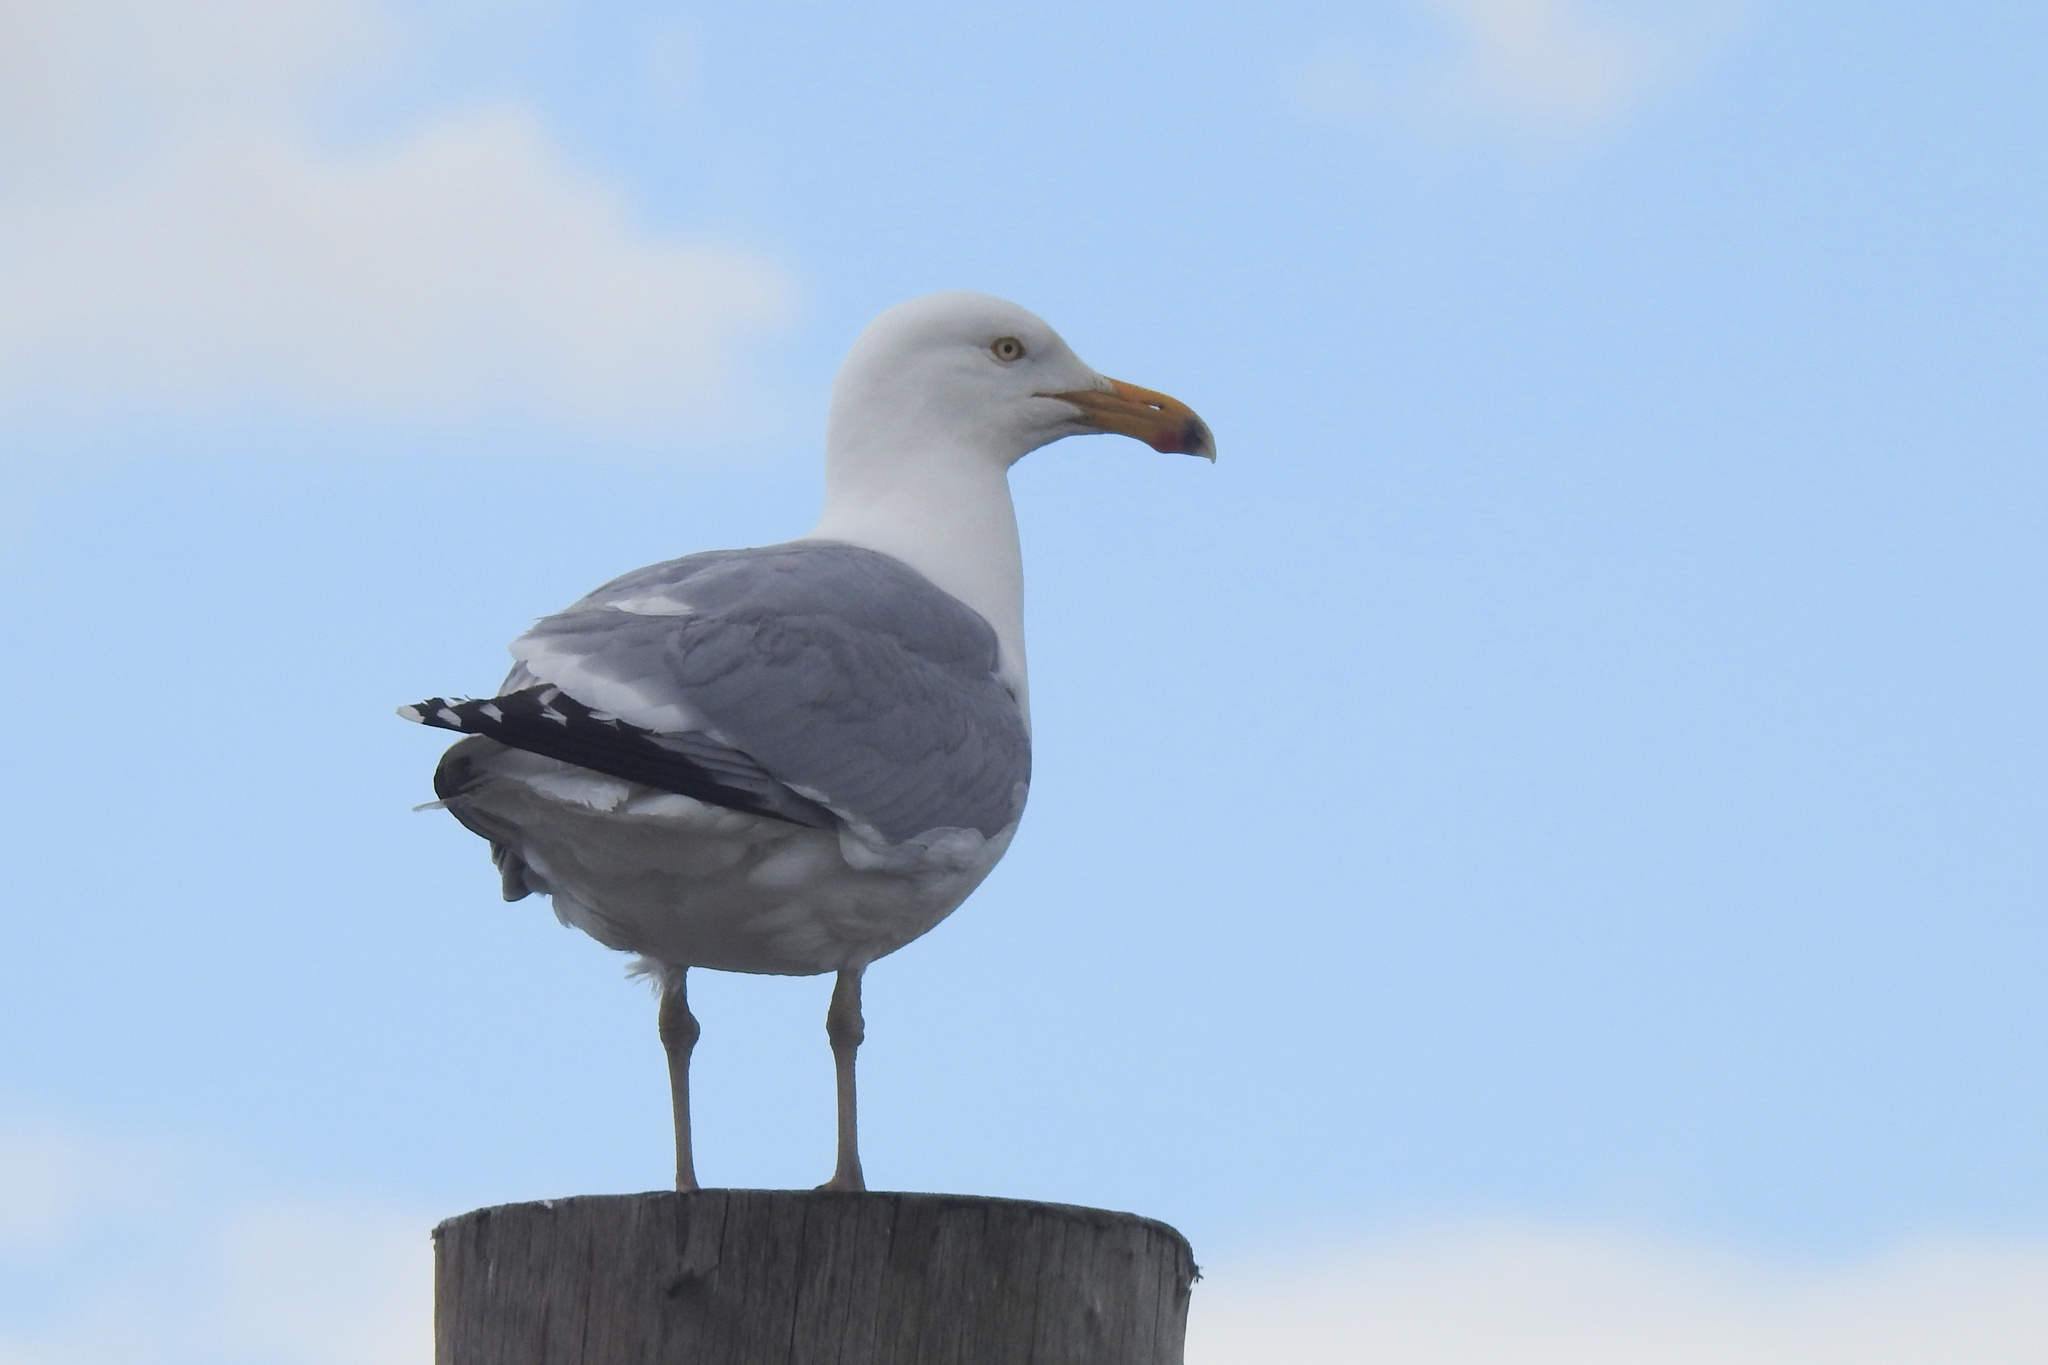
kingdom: Animalia
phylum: Chordata
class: Aves
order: Charadriiformes
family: Laridae
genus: Larus
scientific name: Larus argentatus
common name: Herring gull
